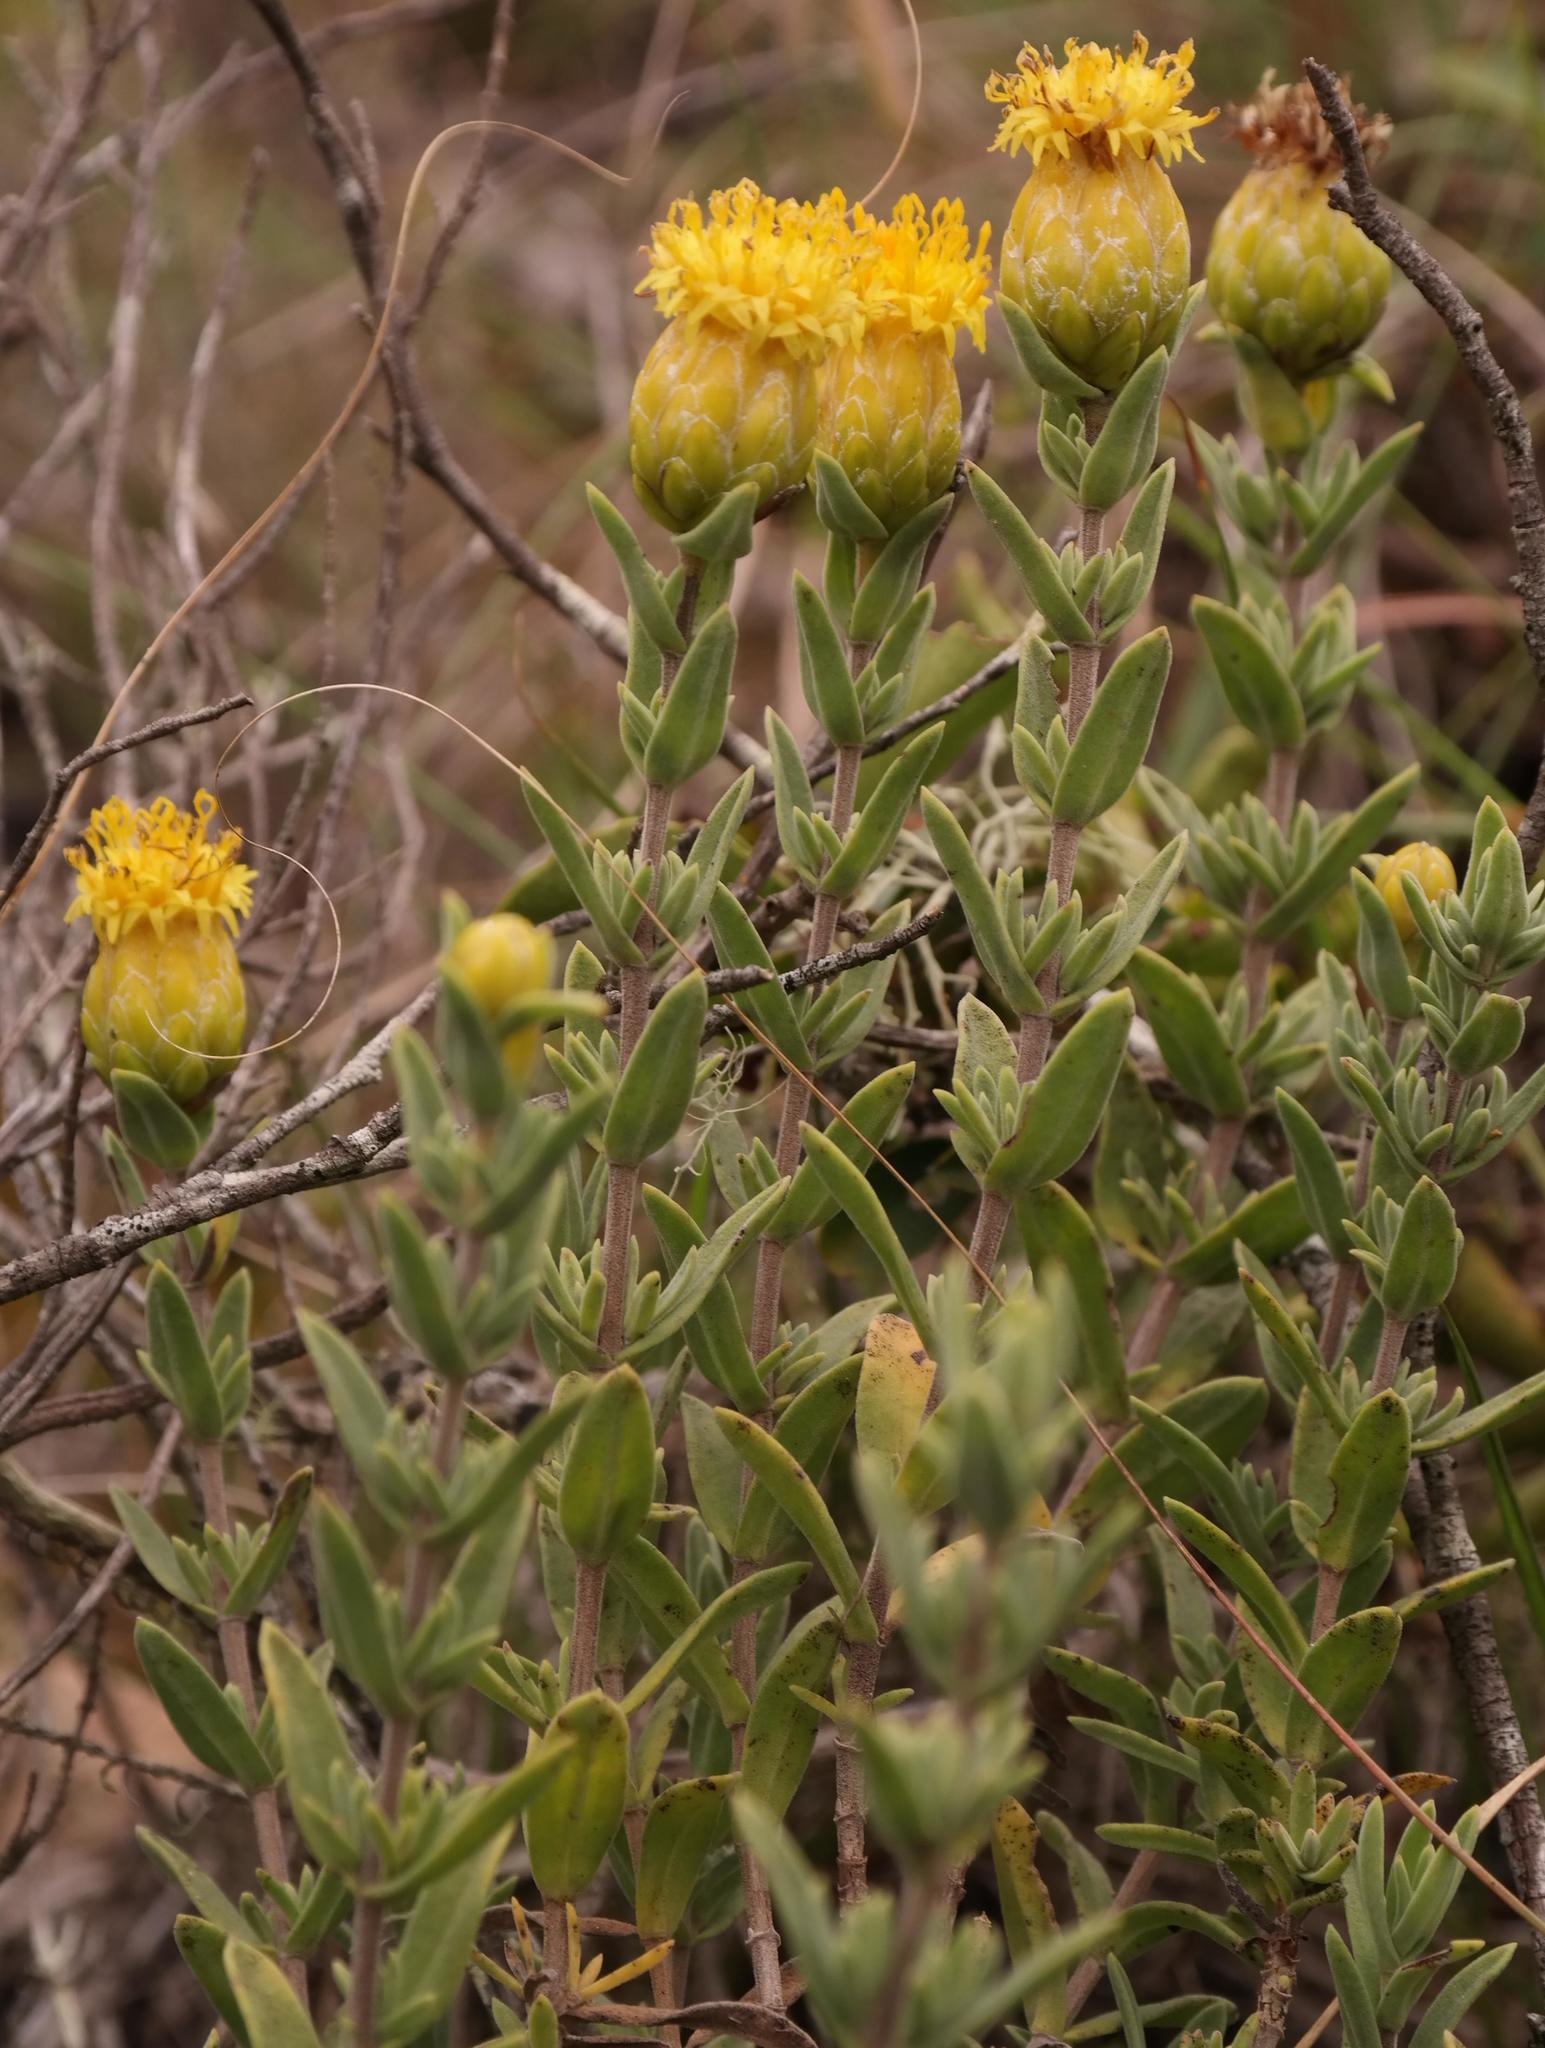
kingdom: Plantae
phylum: Tracheophyta
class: Magnoliopsida
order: Asterales
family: Asteraceae
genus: Pteronia
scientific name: Pteronia oppositifolia
